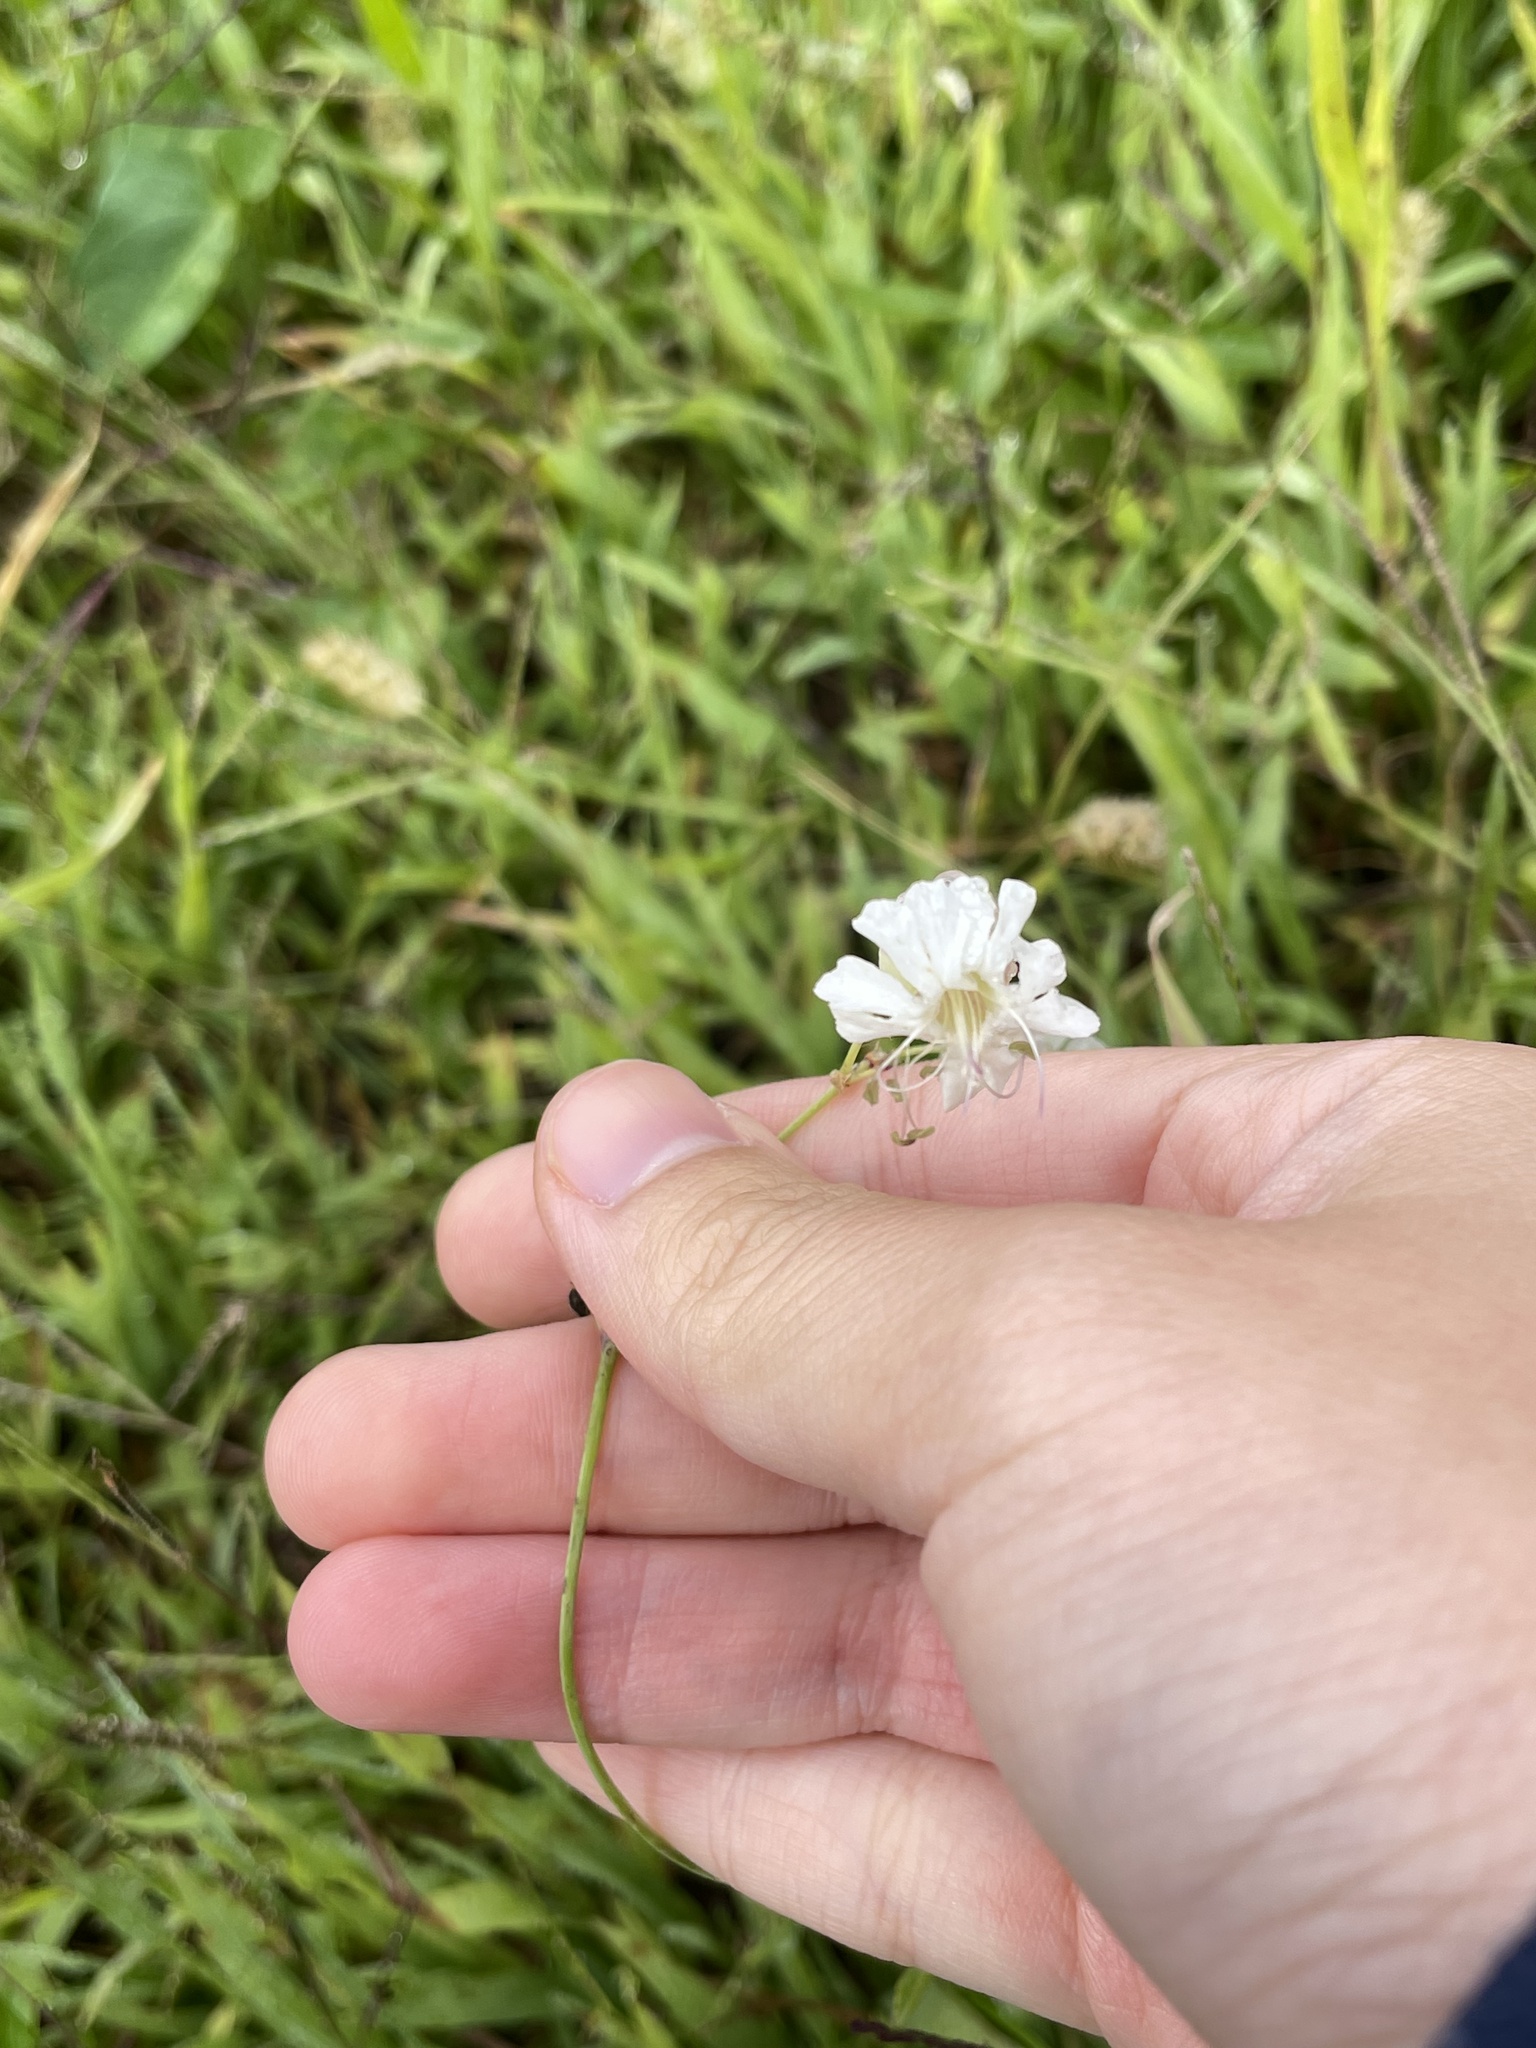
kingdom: Plantae
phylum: Tracheophyta
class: Magnoliopsida
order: Caryophyllales
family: Caryophyllaceae
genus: Silene
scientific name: Silene vulgaris
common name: Bladder campion
